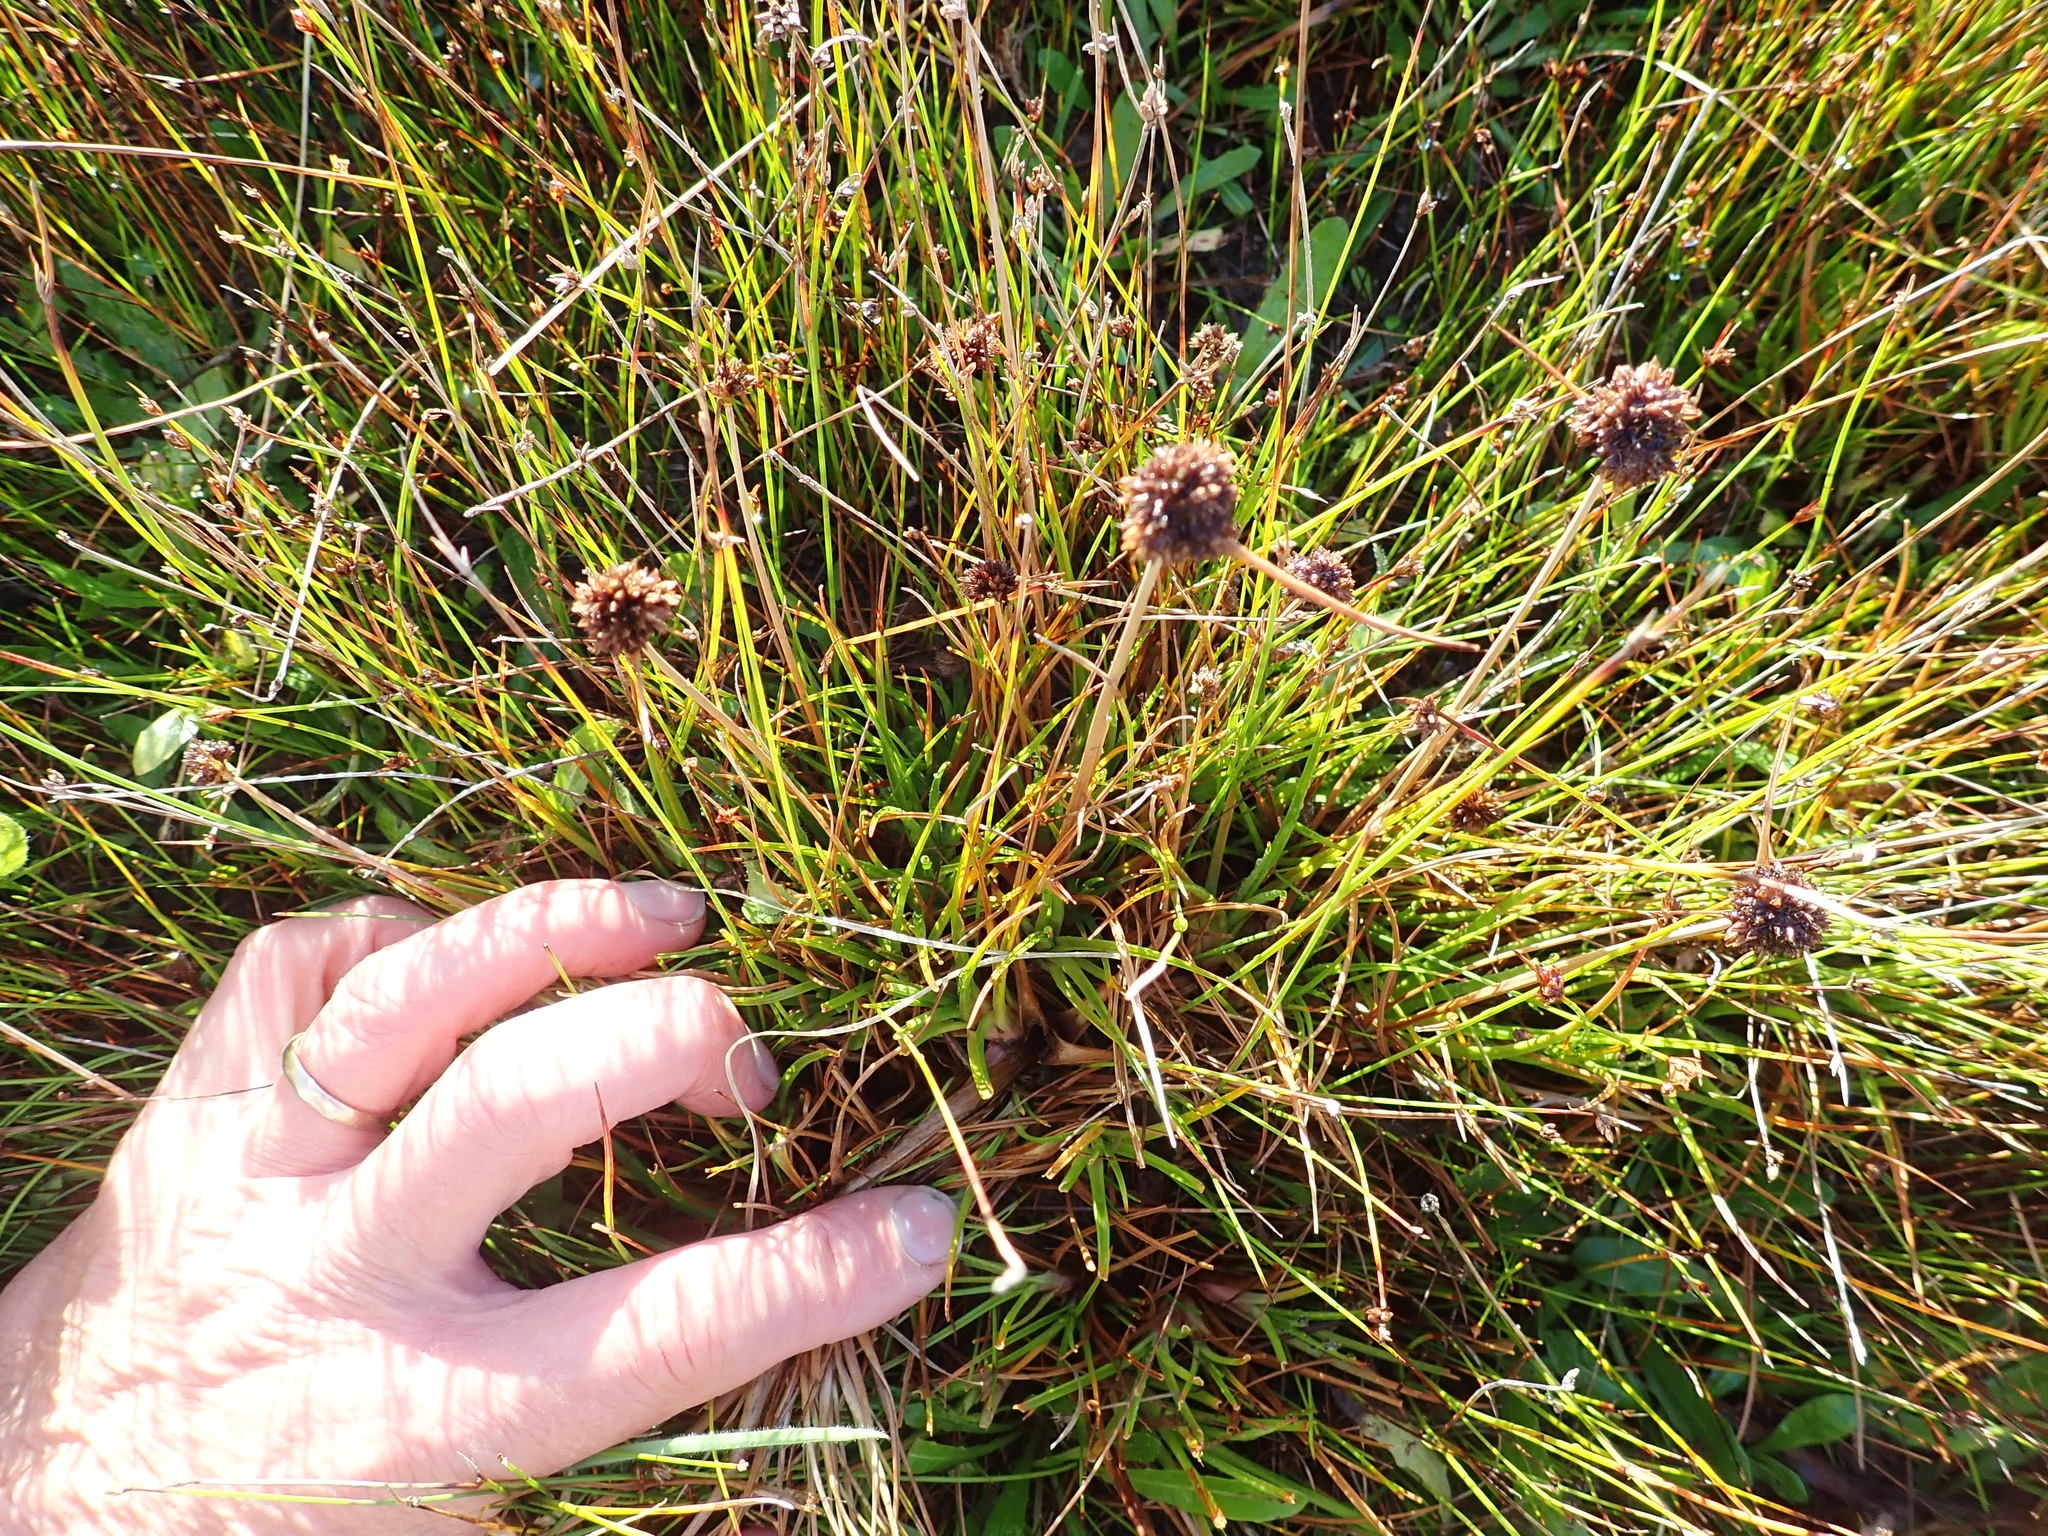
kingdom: Plantae
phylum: Tracheophyta
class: Liliopsida
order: Poales
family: Juncaceae
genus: Juncus
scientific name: Juncus caespiticius
